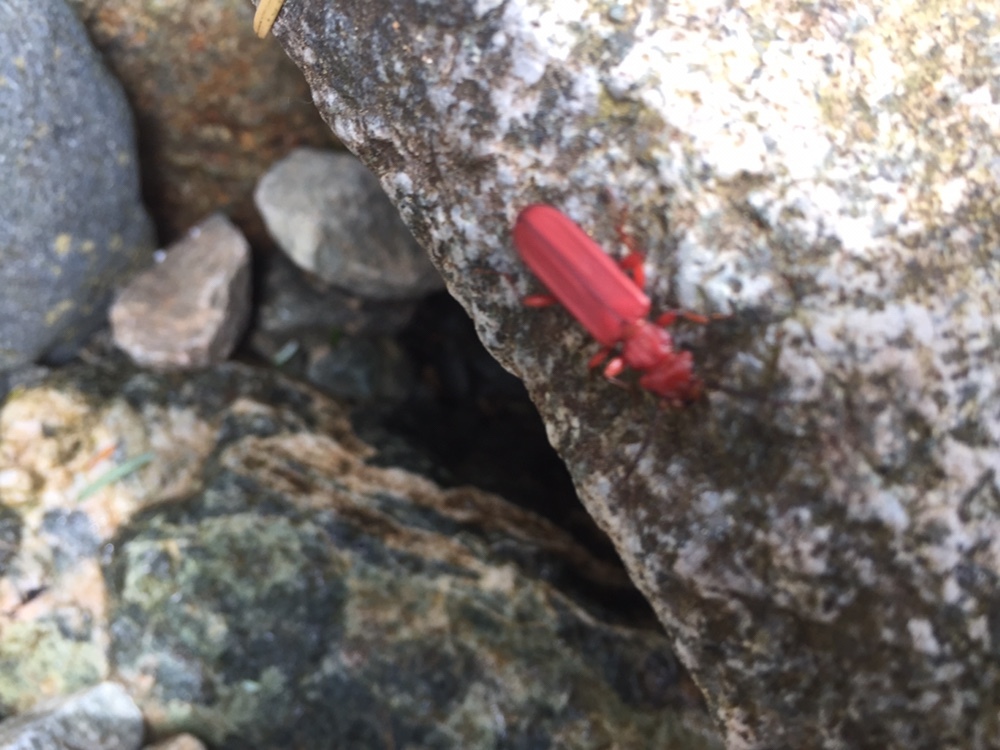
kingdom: Animalia
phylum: Arthropoda
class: Insecta
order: Coleoptera
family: Cucujidae
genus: Cucujus
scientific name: Cucujus clavipes
